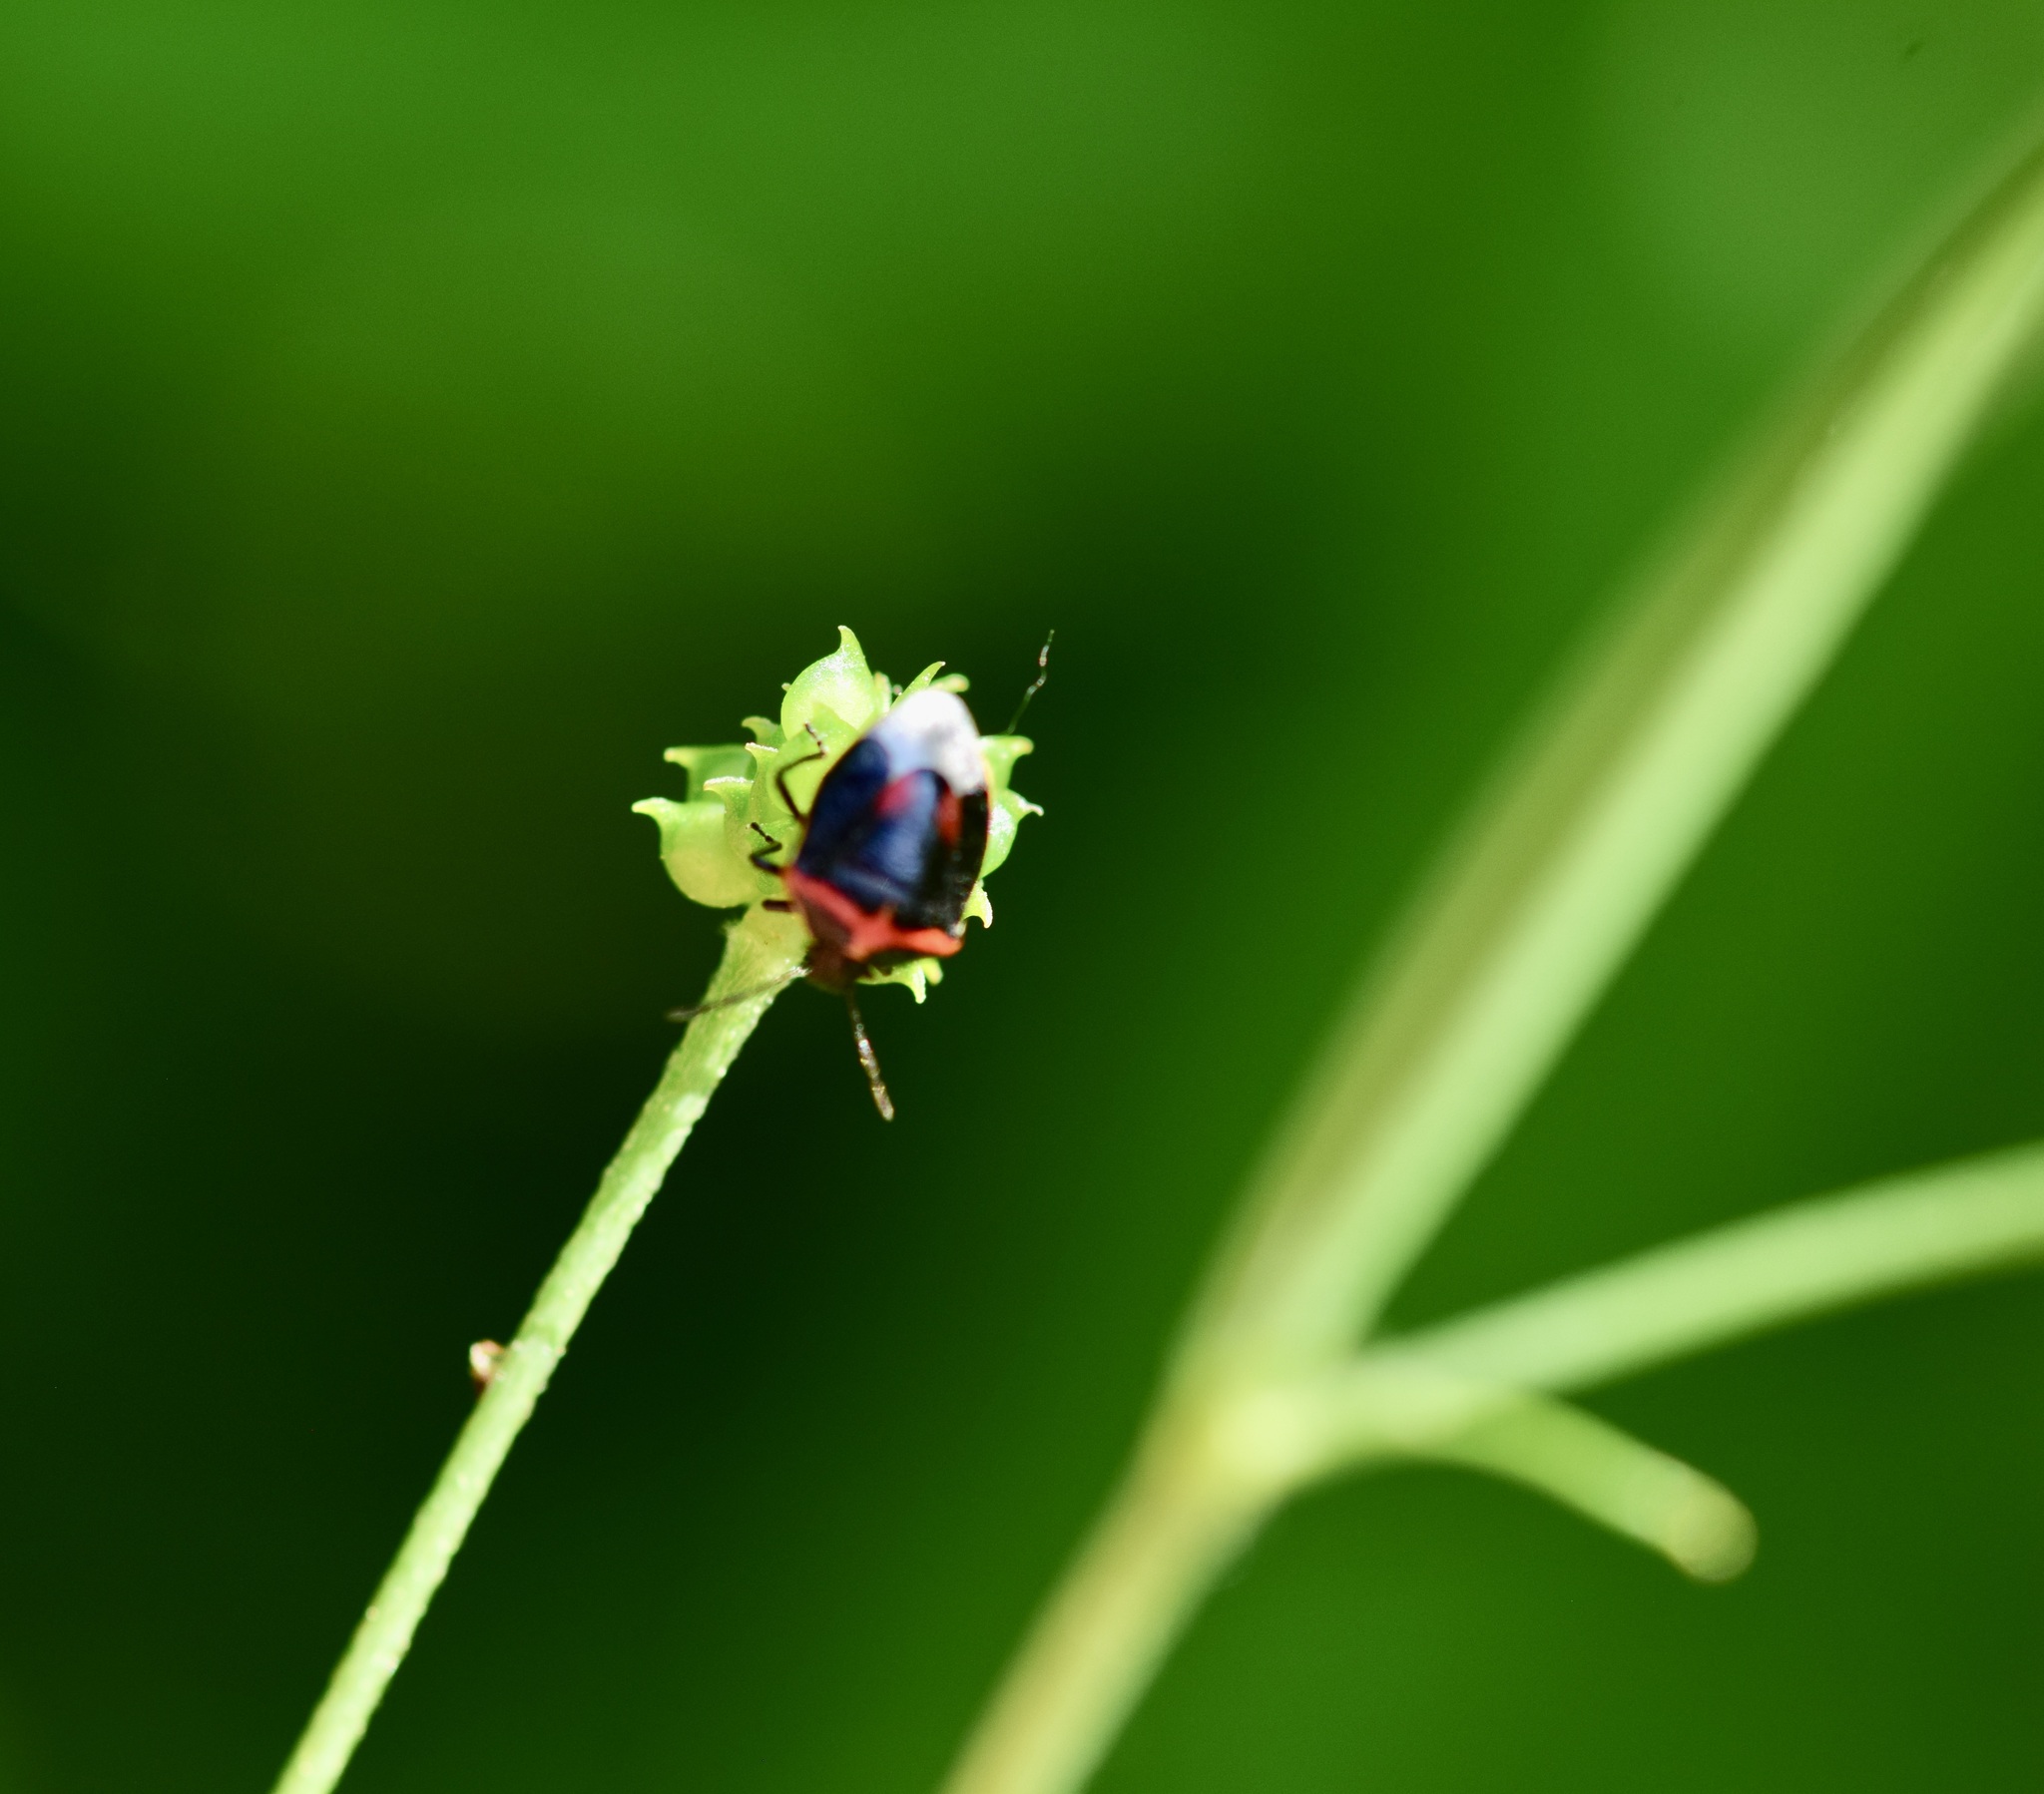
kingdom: Animalia
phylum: Arthropoda
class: Insecta
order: Hemiptera
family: Pentatomidae
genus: Cosmopepla
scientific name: Cosmopepla lintneriana
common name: Twice-stabbed stink bug
